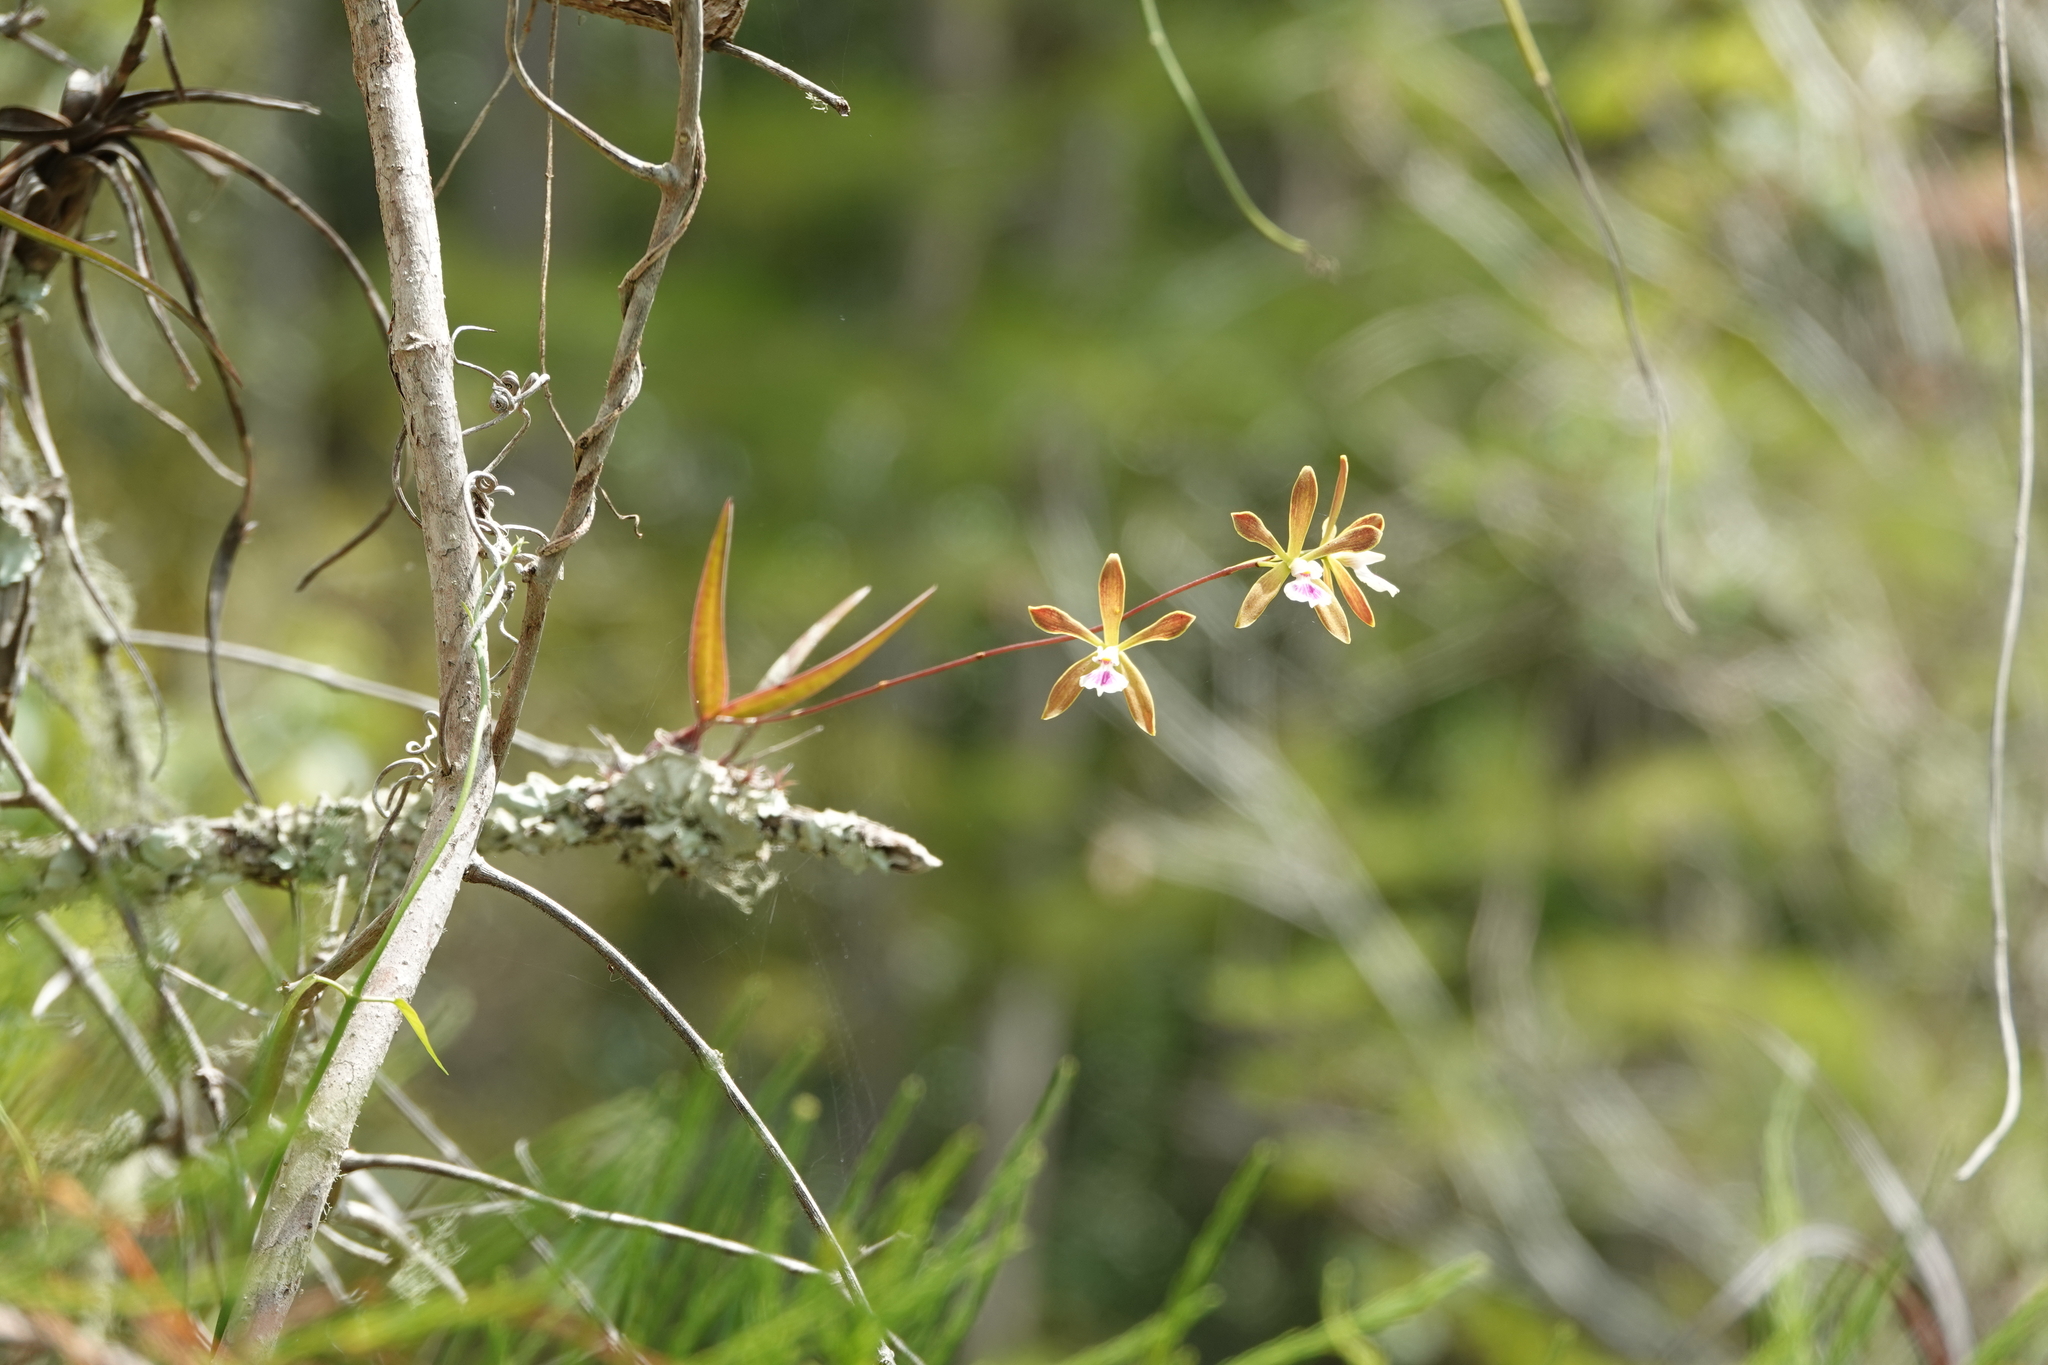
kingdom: Plantae
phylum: Tracheophyta
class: Liliopsida
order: Asparagales
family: Orchidaceae
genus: Encyclia
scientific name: Encyclia tampensis
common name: Florida butterfly orchid
